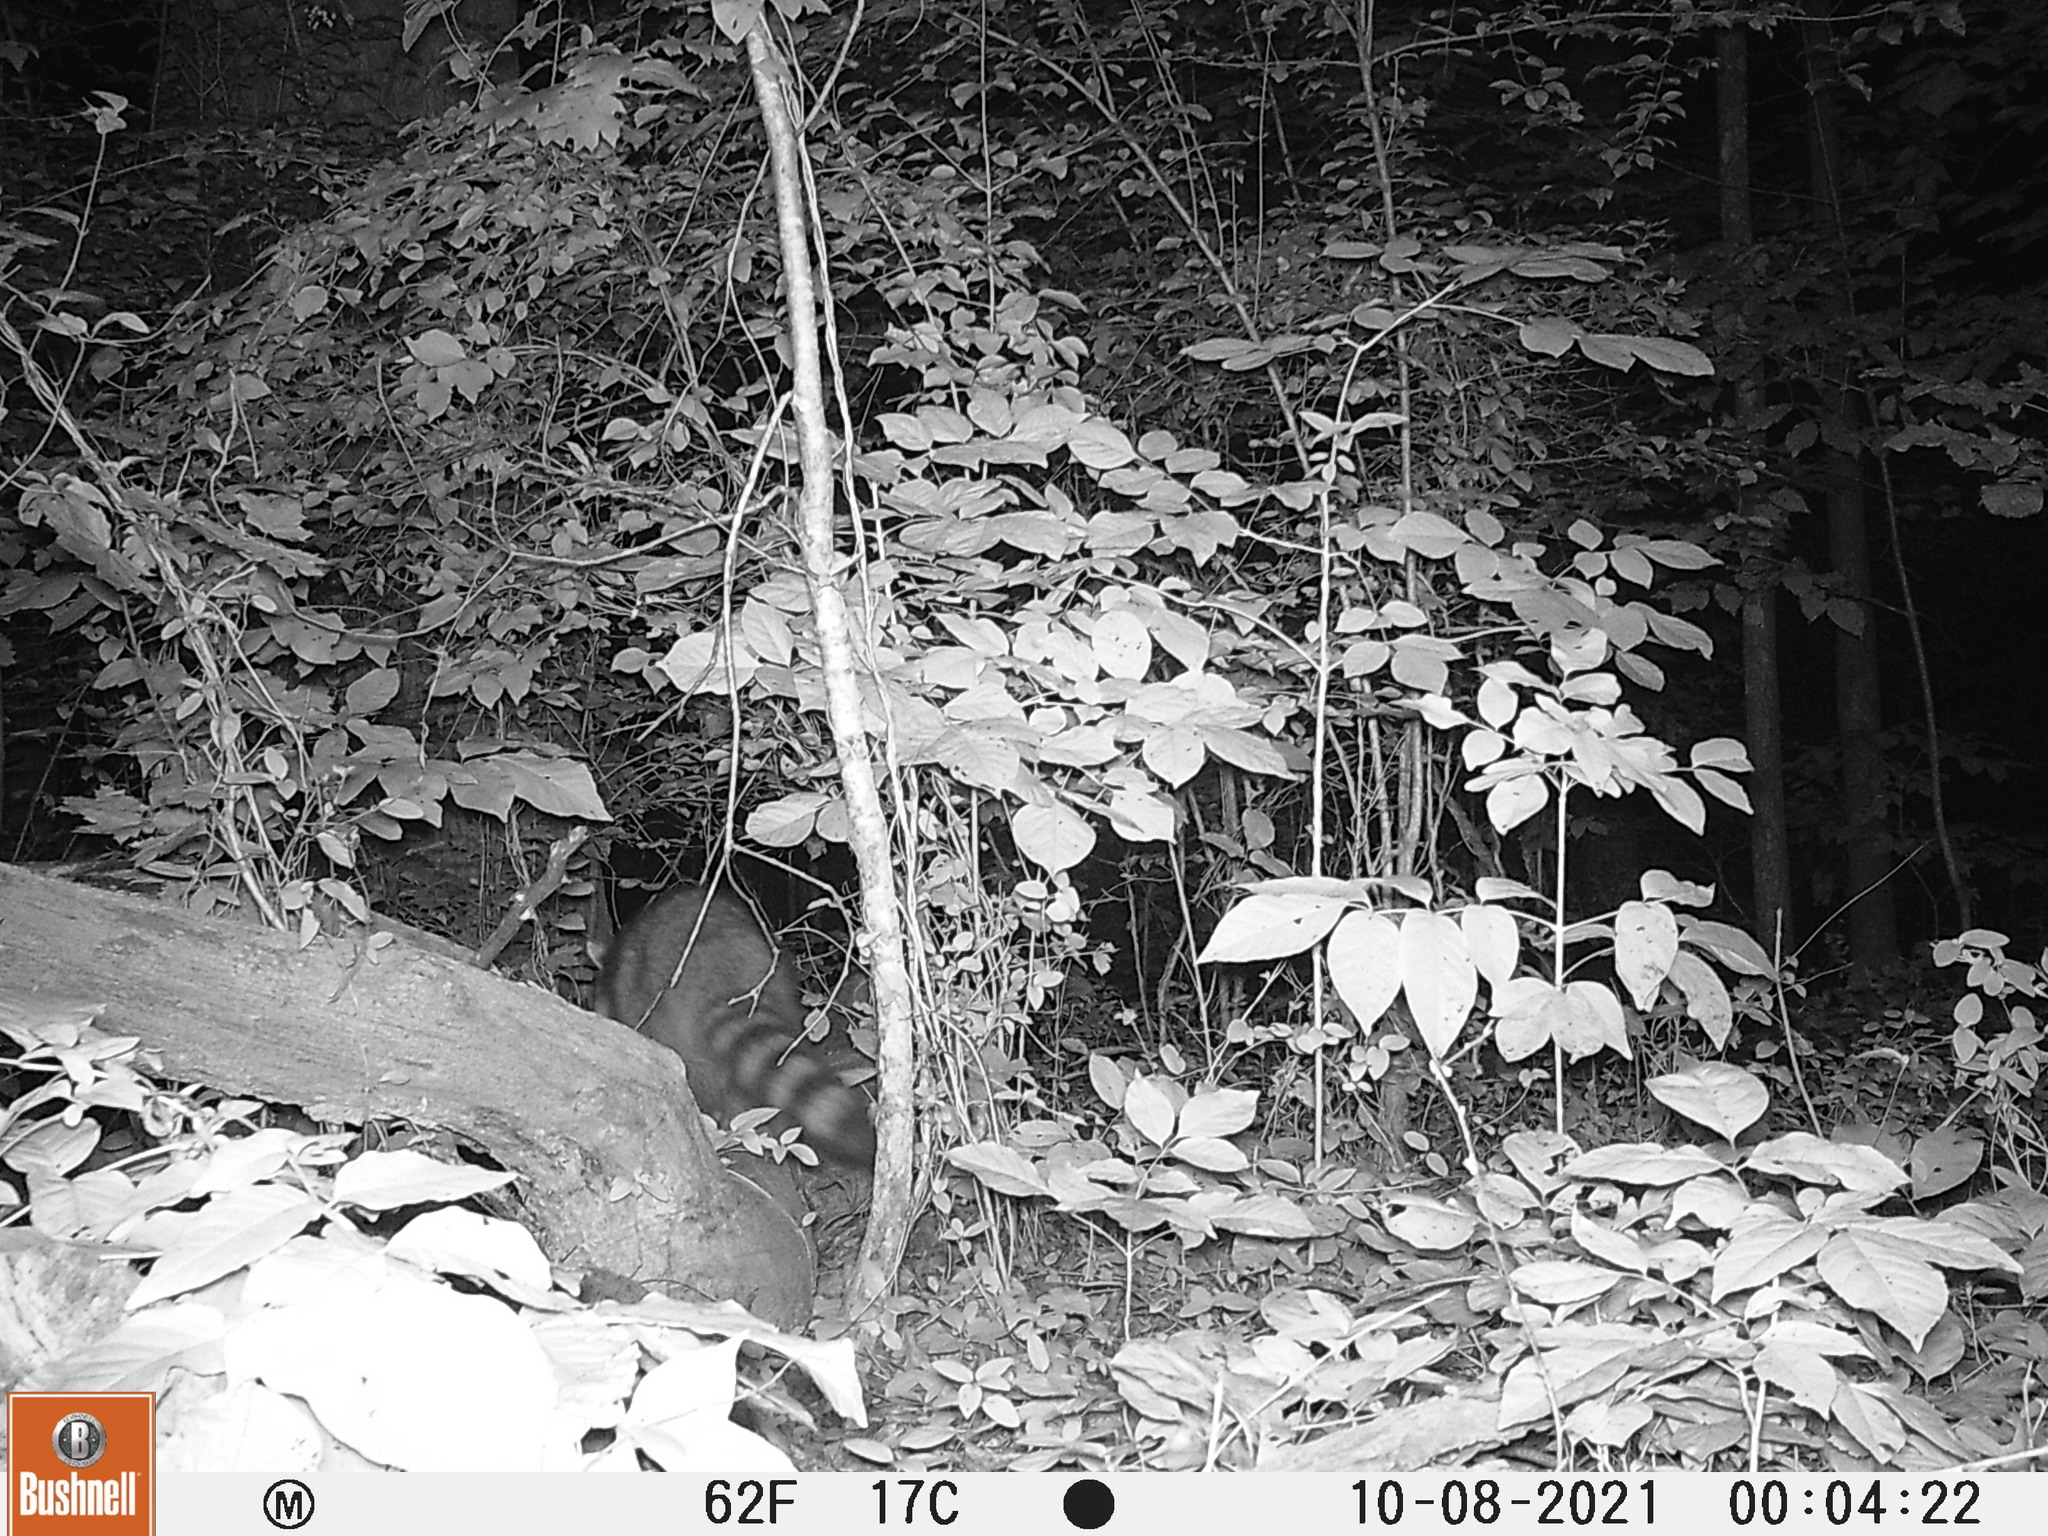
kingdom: Animalia
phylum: Chordata
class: Mammalia
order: Carnivora
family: Procyonidae
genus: Procyon
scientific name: Procyon lotor
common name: Raccoon
